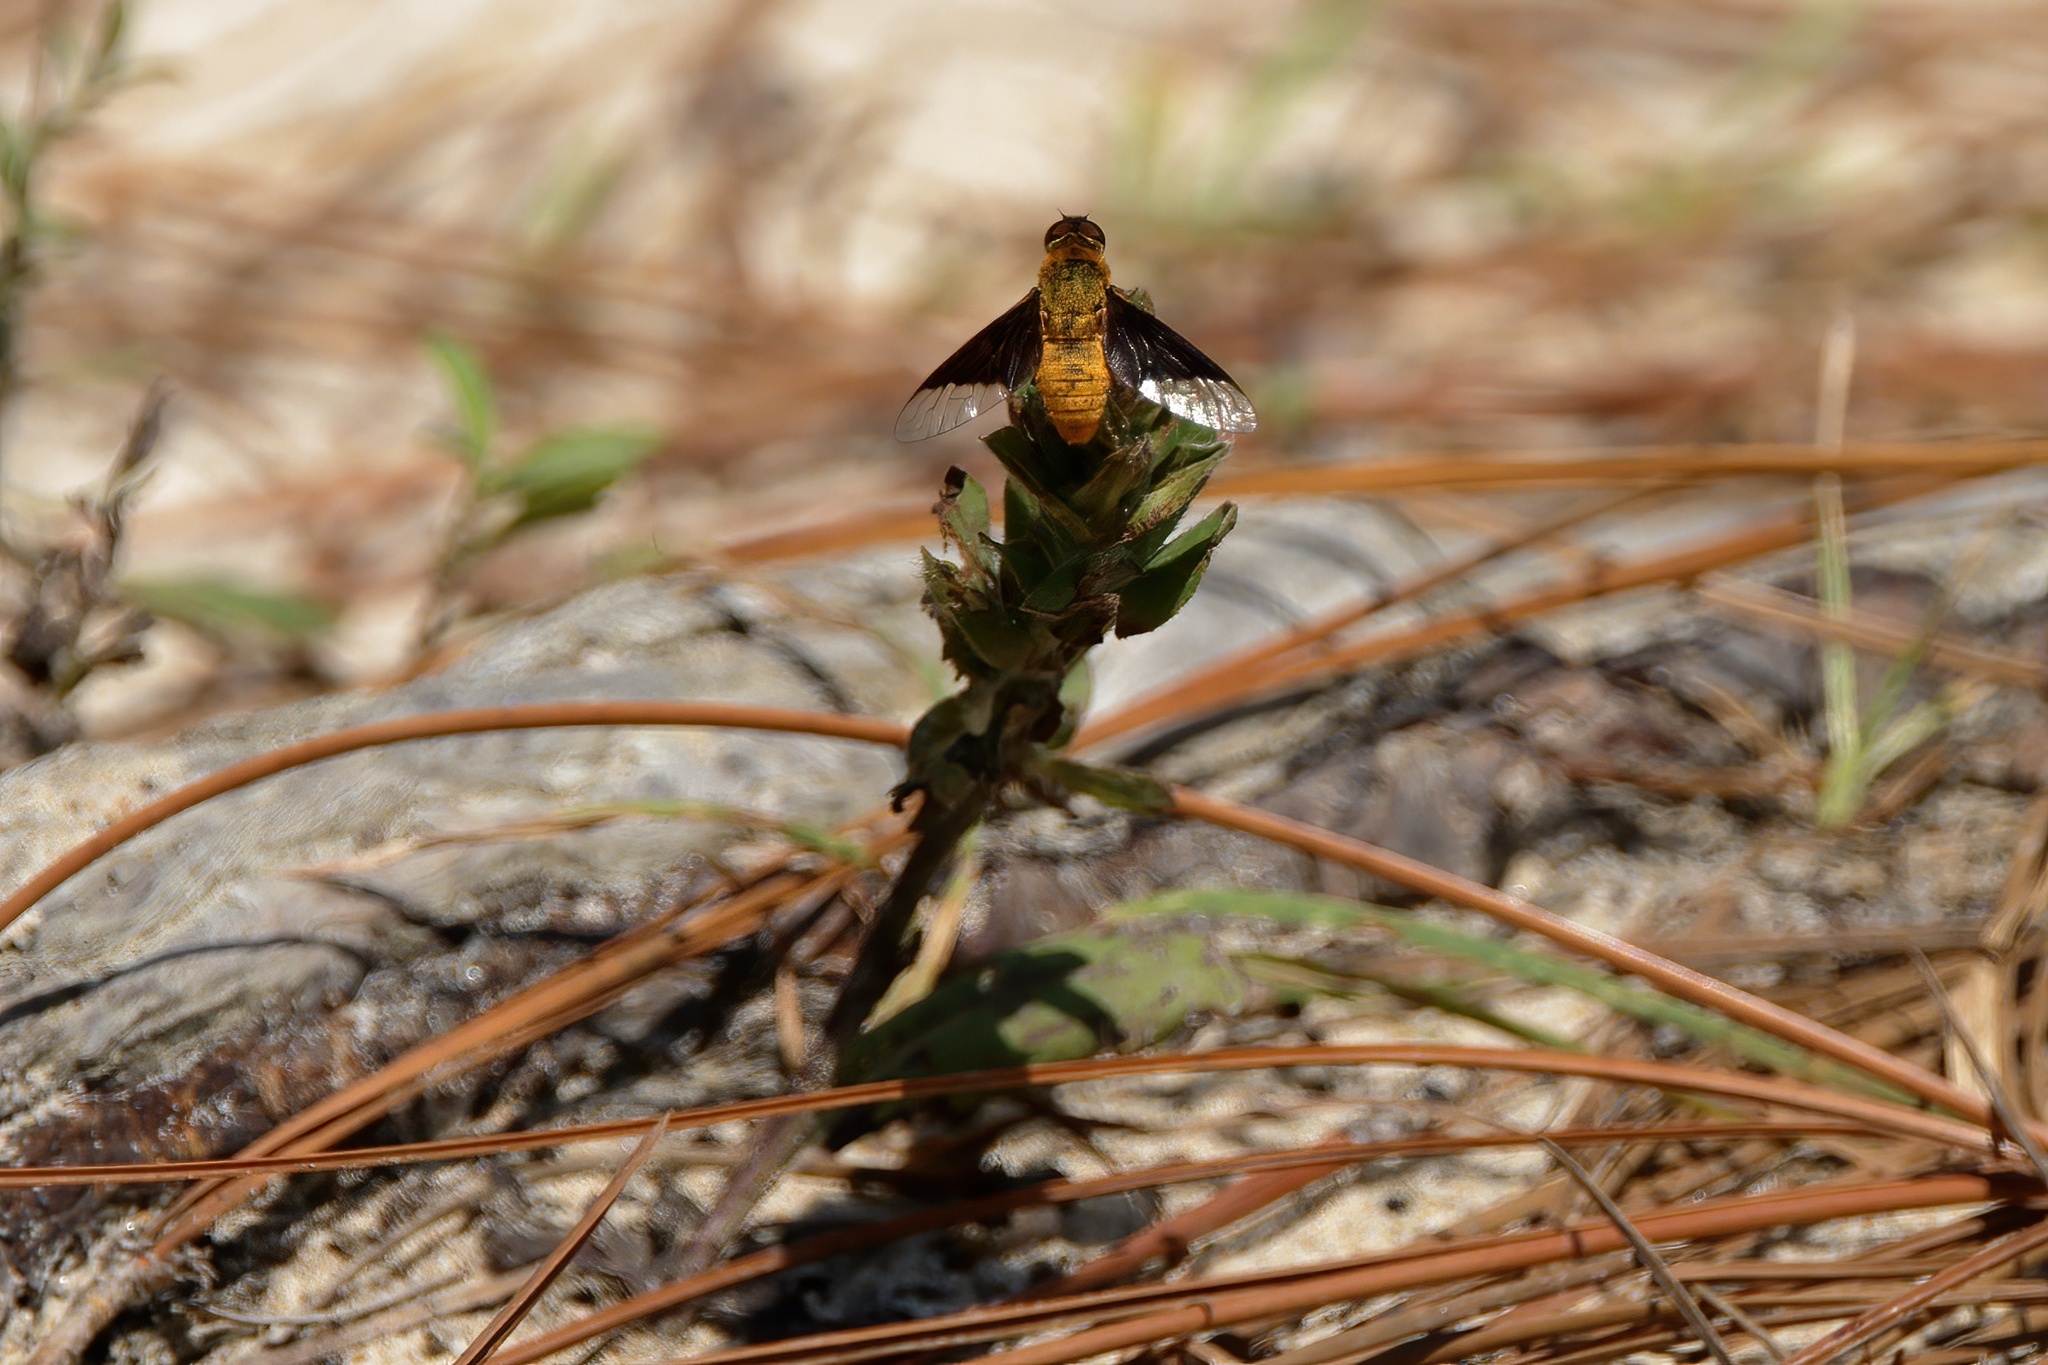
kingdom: Animalia
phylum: Arthropoda
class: Insecta
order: Diptera
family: Bombyliidae
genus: Chrysanthrax
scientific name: Chrysanthrax cypris
